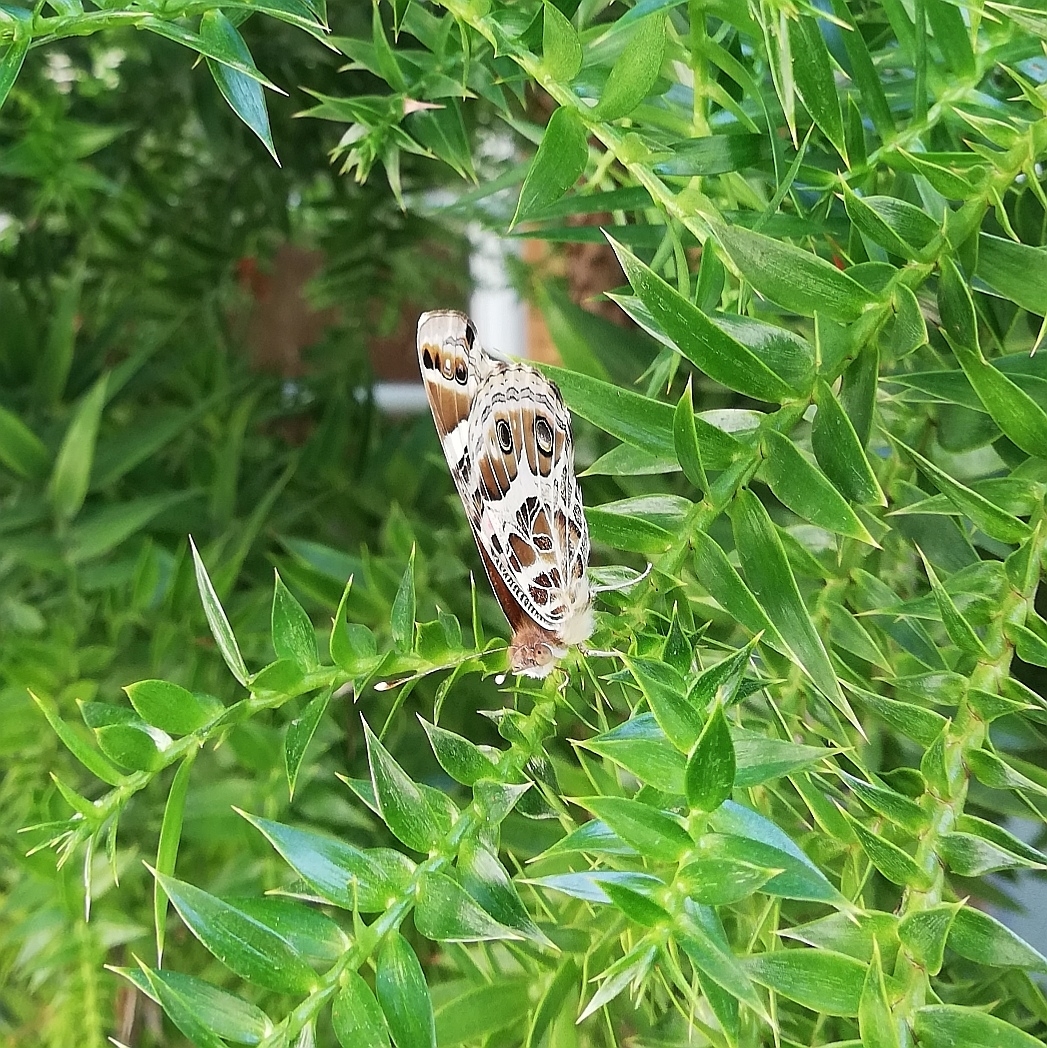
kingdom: Animalia
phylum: Arthropoda
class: Insecta
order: Lepidoptera
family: Nymphalidae
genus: Vanessa
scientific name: Vanessa braziliensis
